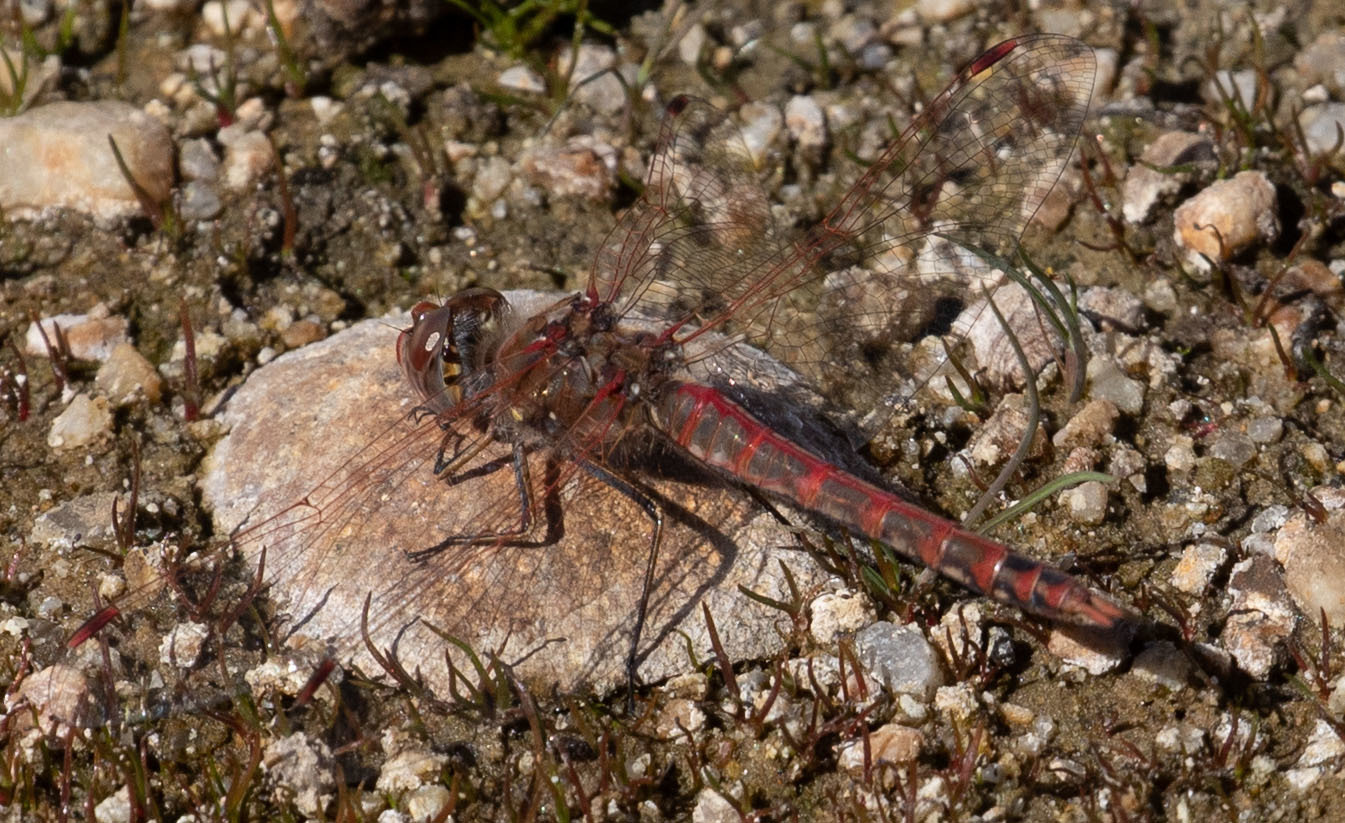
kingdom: Animalia
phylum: Arthropoda
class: Insecta
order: Odonata
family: Libellulidae
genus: Sympetrum
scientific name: Sympetrum corruptum
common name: Variegated meadowhawk
